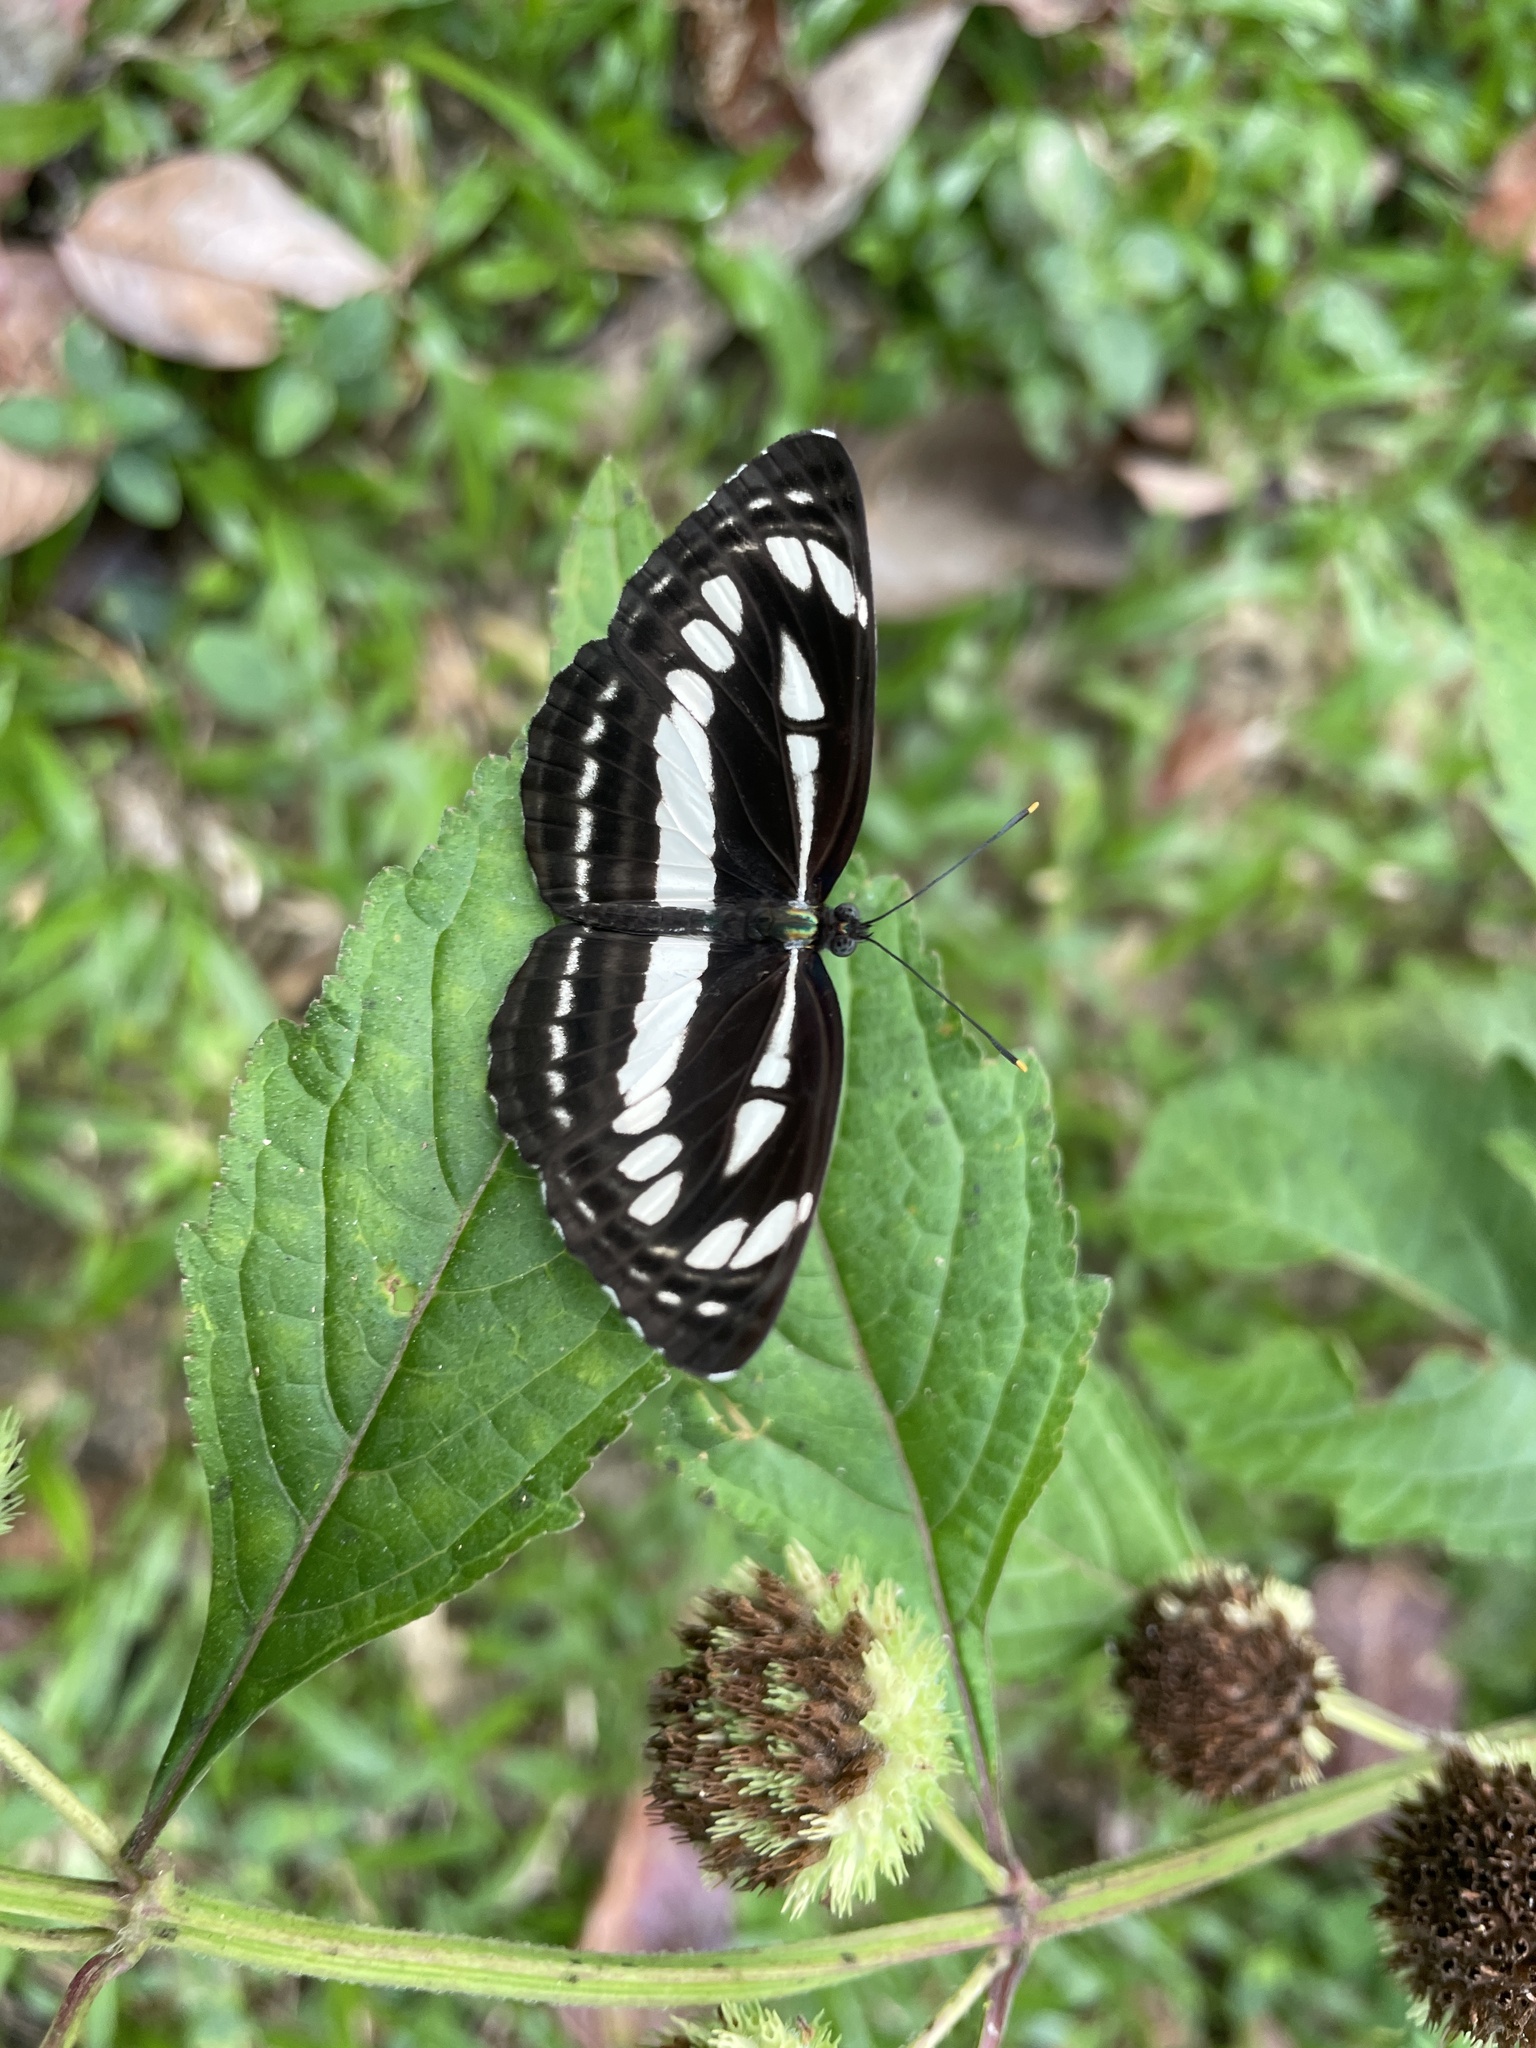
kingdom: Animalia
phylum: Arthropoda
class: Insecta
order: Lepidoptera
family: Nymphalidae
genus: Neptis
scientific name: Neptis hylas
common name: Common sailer
